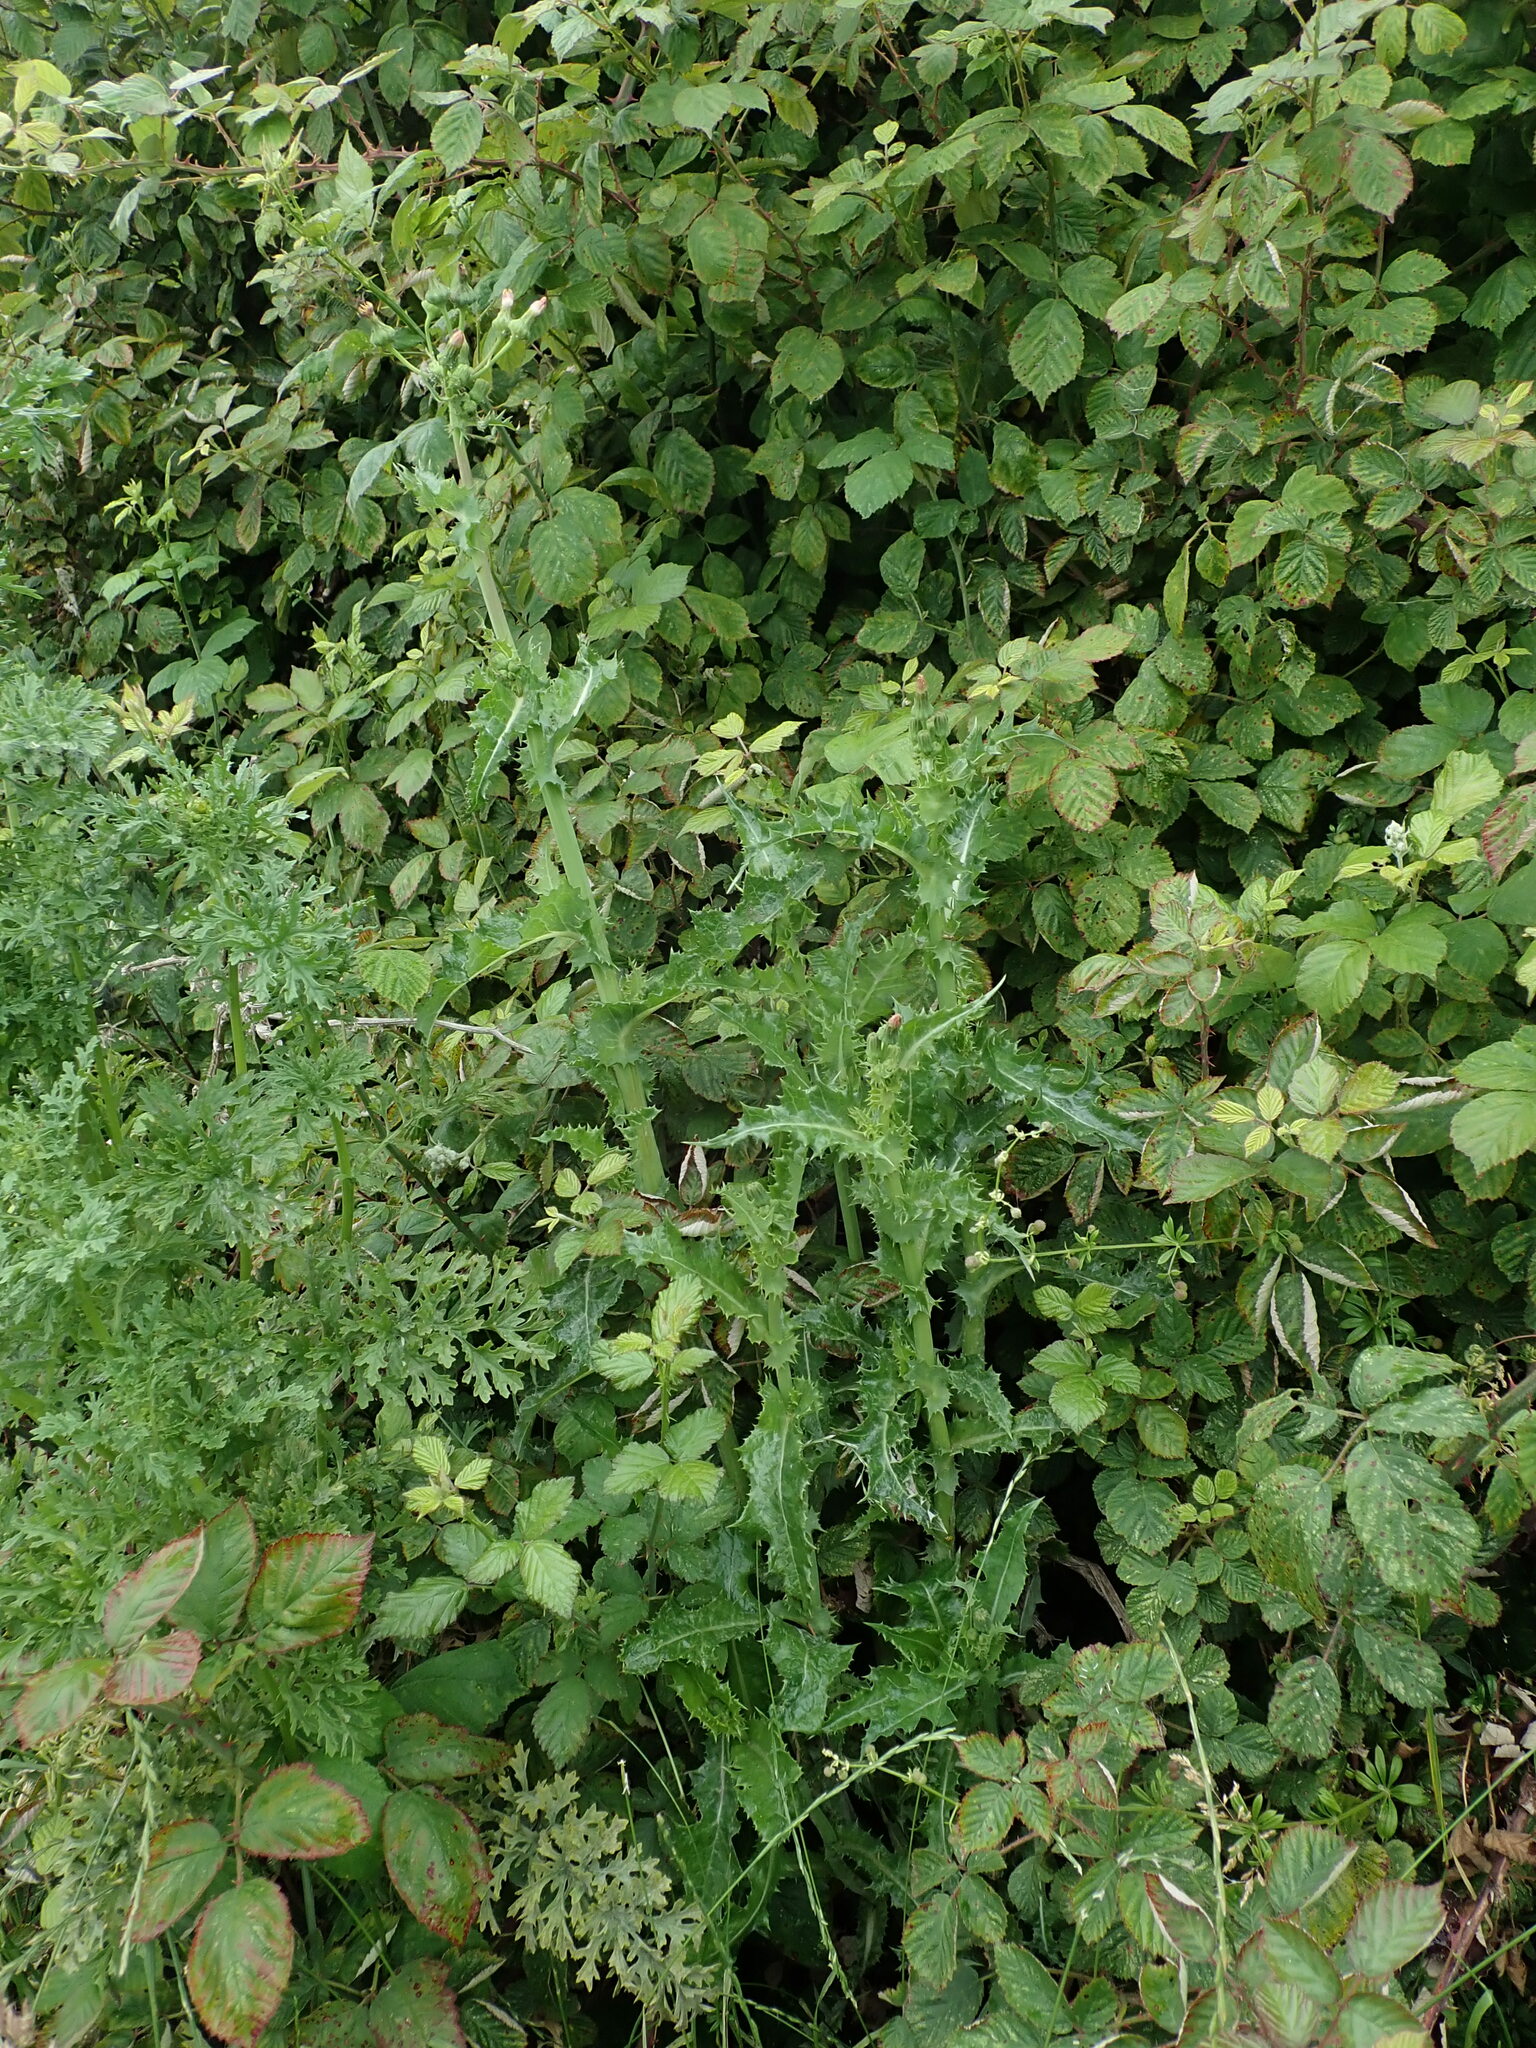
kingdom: Plantae
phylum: Tracheophyta
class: Magnoliopsida
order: Asterales
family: Asteraceae
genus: Sonchus
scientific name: Sonchus asper
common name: Prickly sow-thistle
